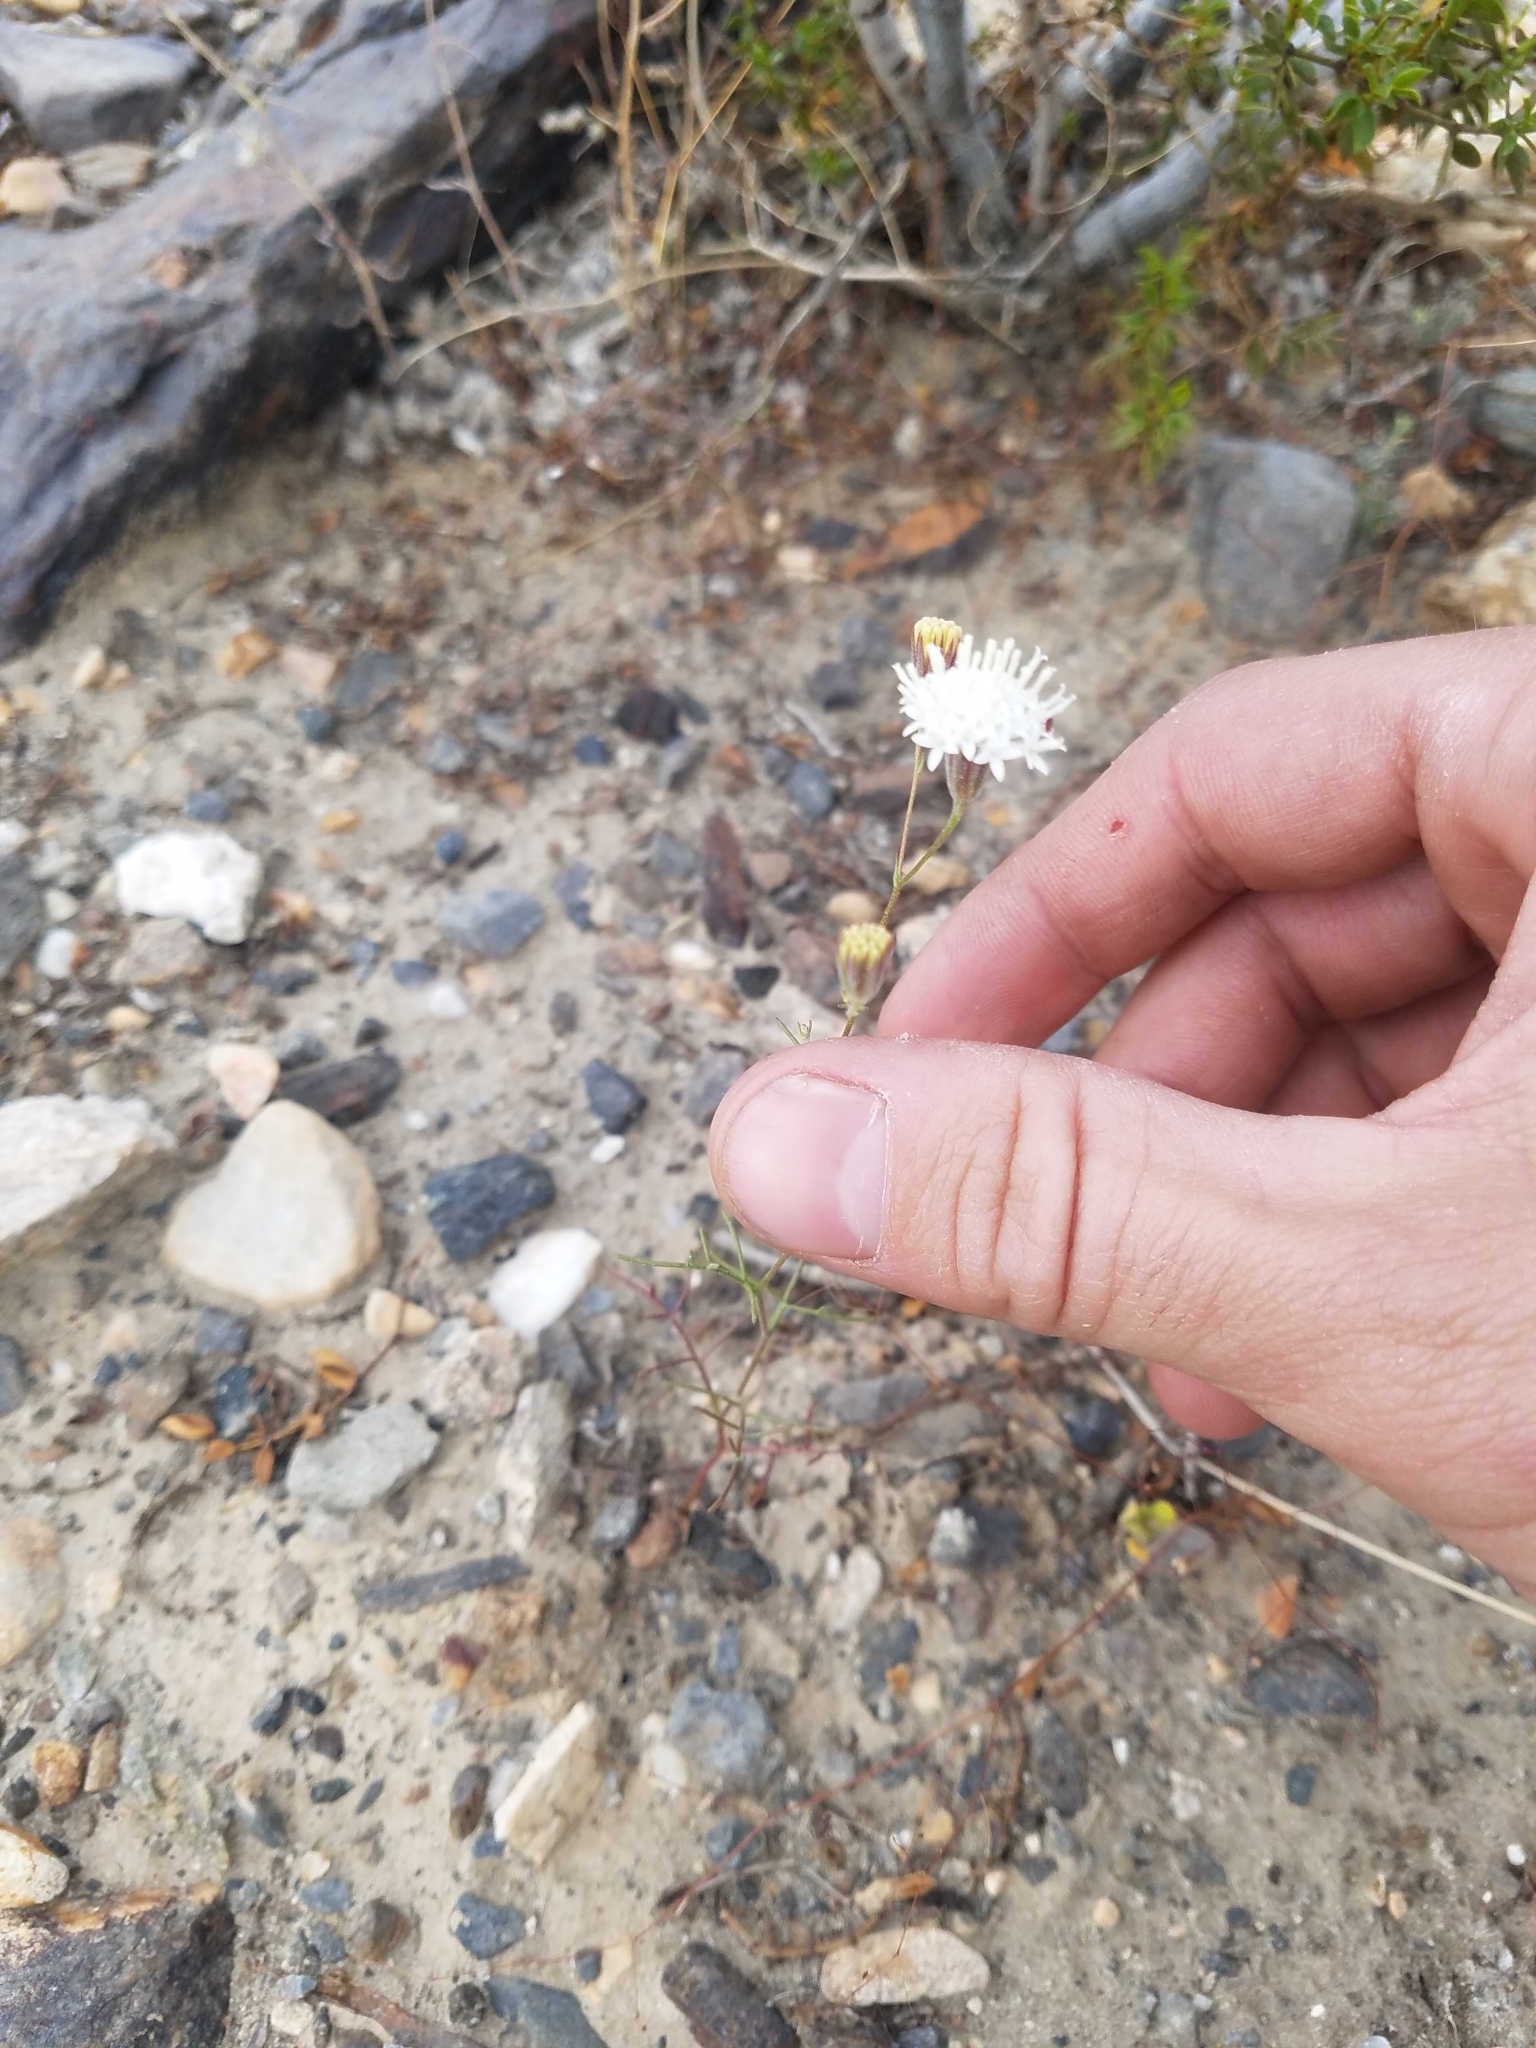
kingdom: Plantae
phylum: Tracheophyta
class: Magnoliopsida
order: Asterales
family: Asteraceae
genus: Chaenactis
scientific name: Chaenactis carphoclinia
